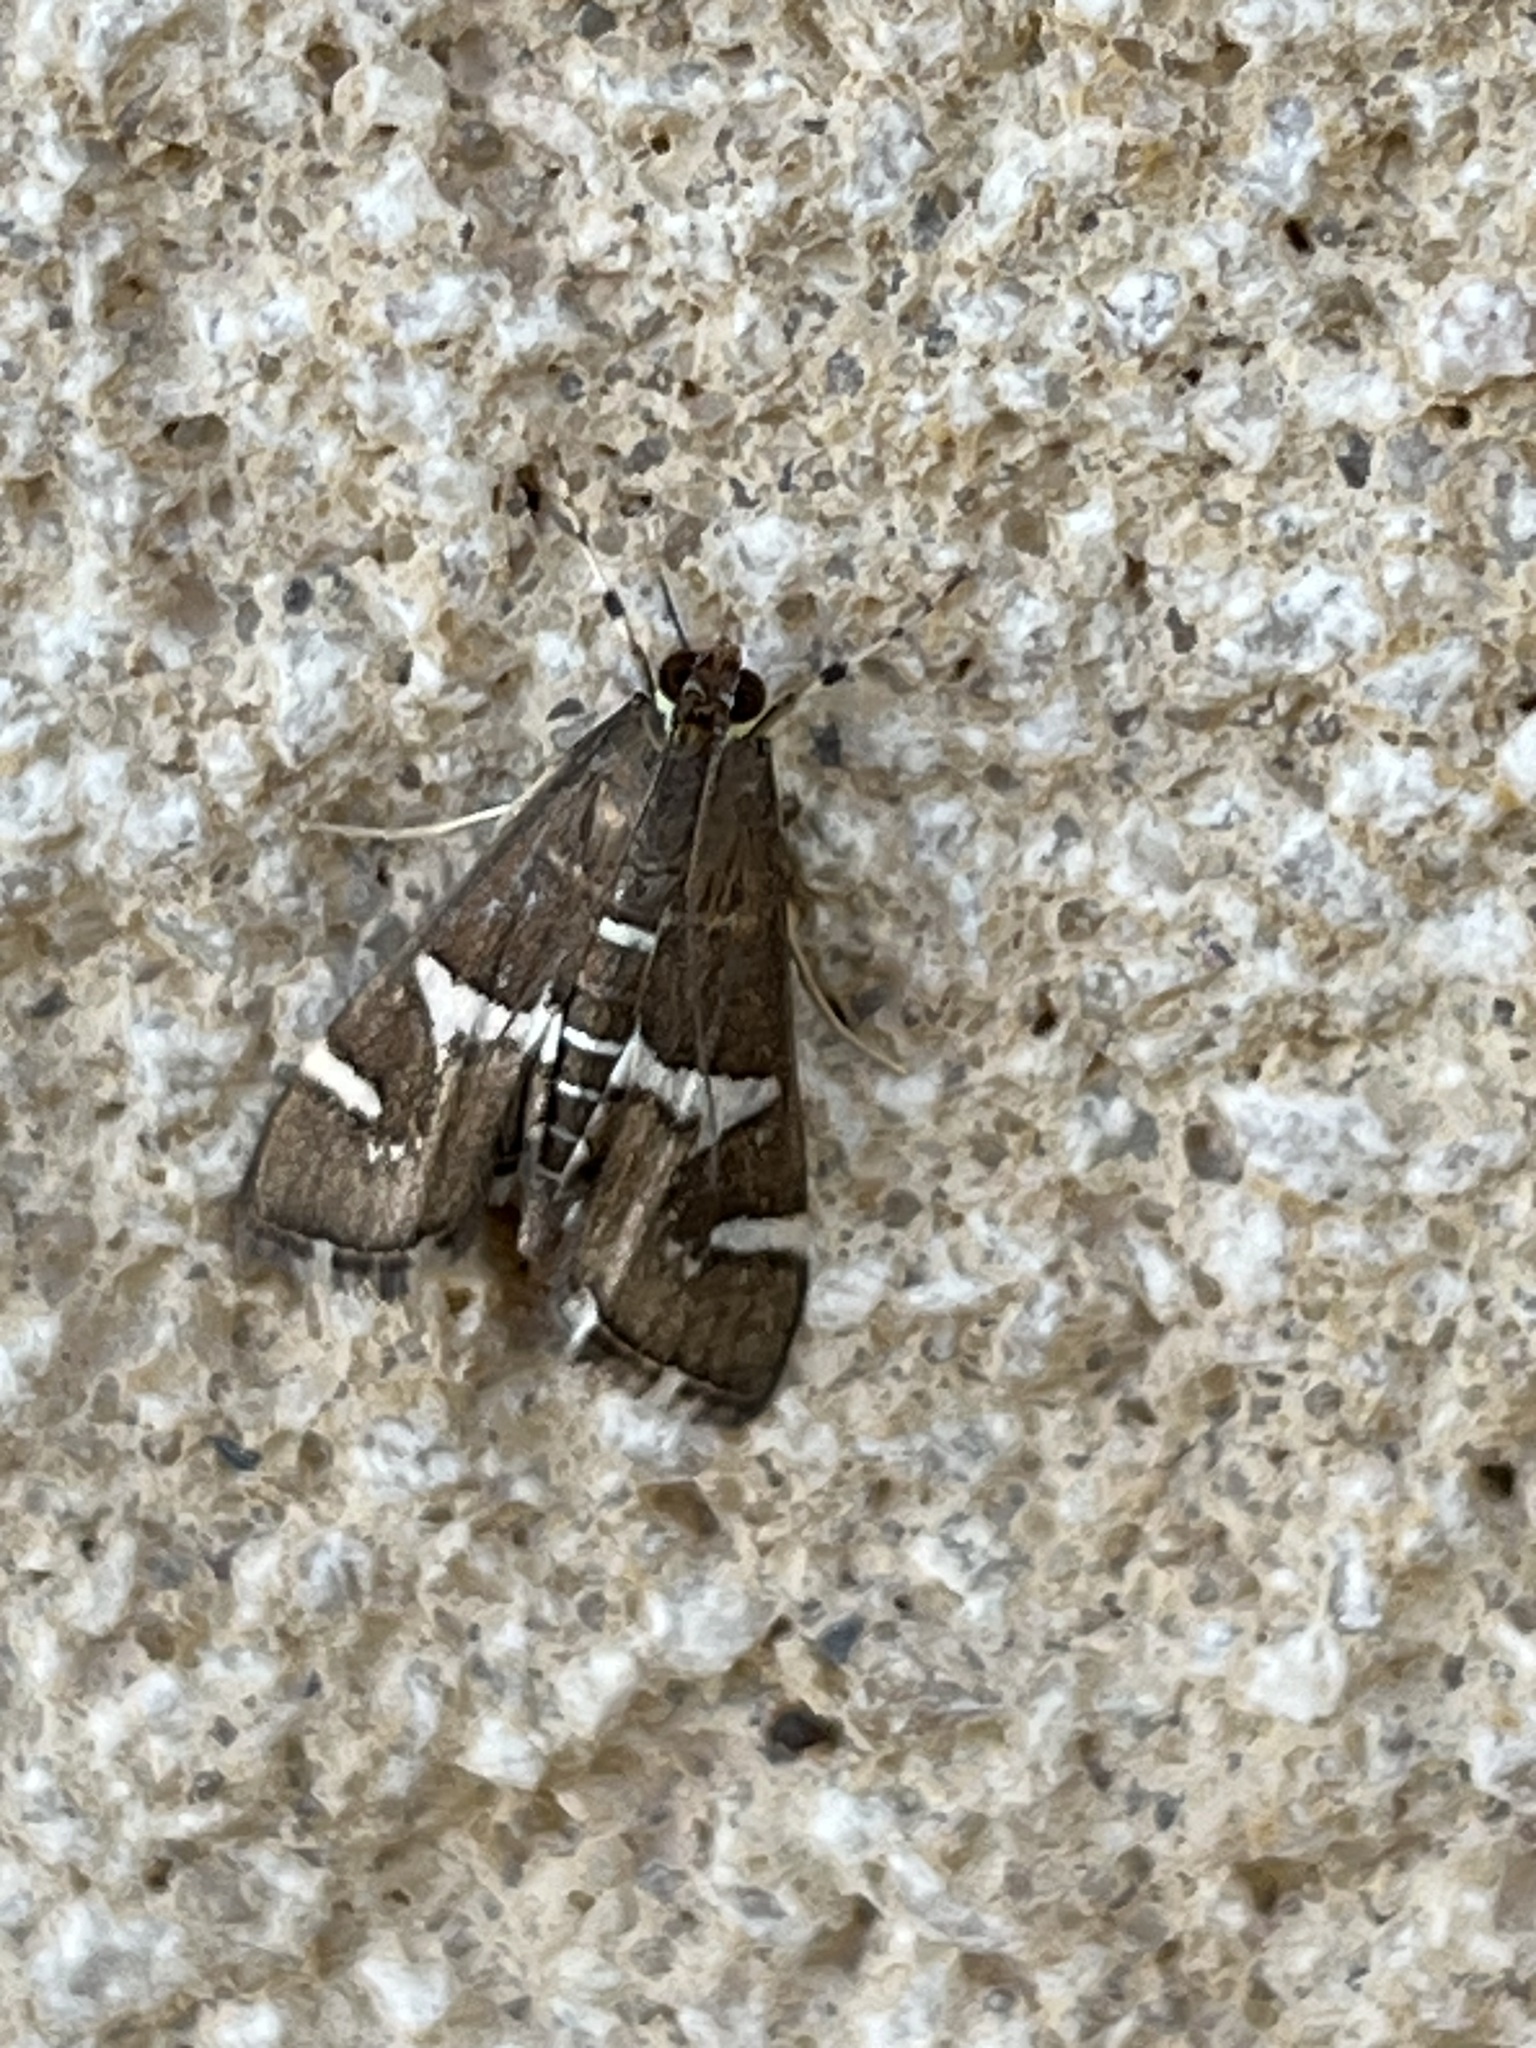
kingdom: Animalia
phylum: Arthropoda
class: Insecta
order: Lepidoptera
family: Crambidae
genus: Spoladea
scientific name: Spoladea recurvalis
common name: Beet webworm moth
